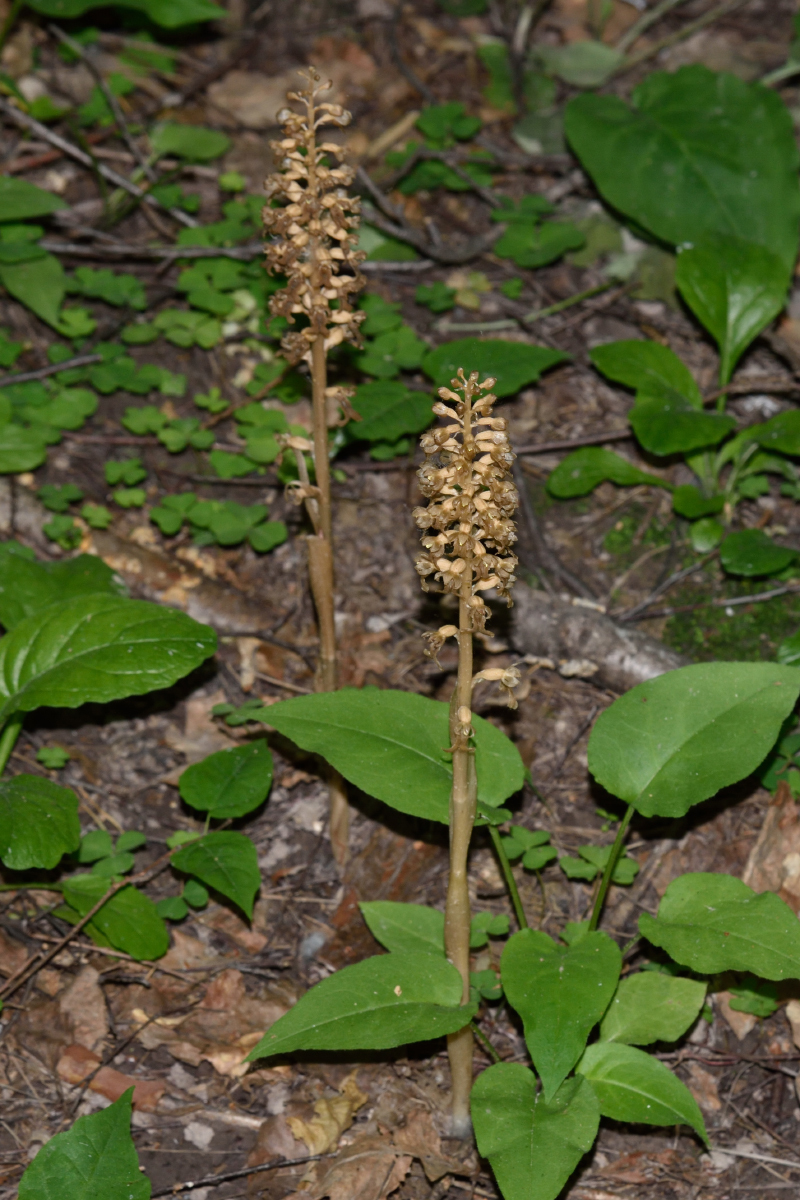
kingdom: Plantae
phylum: Tracheophyta
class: Liliopsida
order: Asparagales
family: Orchidaceae
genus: Neottia
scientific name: Neottia nidus-avis
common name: Bird's-nest orchid
